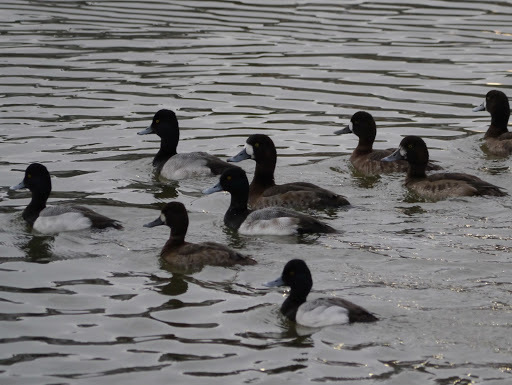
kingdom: Animalia
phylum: Chordata
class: Aves
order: Anseriformes
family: Anatidae
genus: Aythya
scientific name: Aythya marila
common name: Greater scaup
